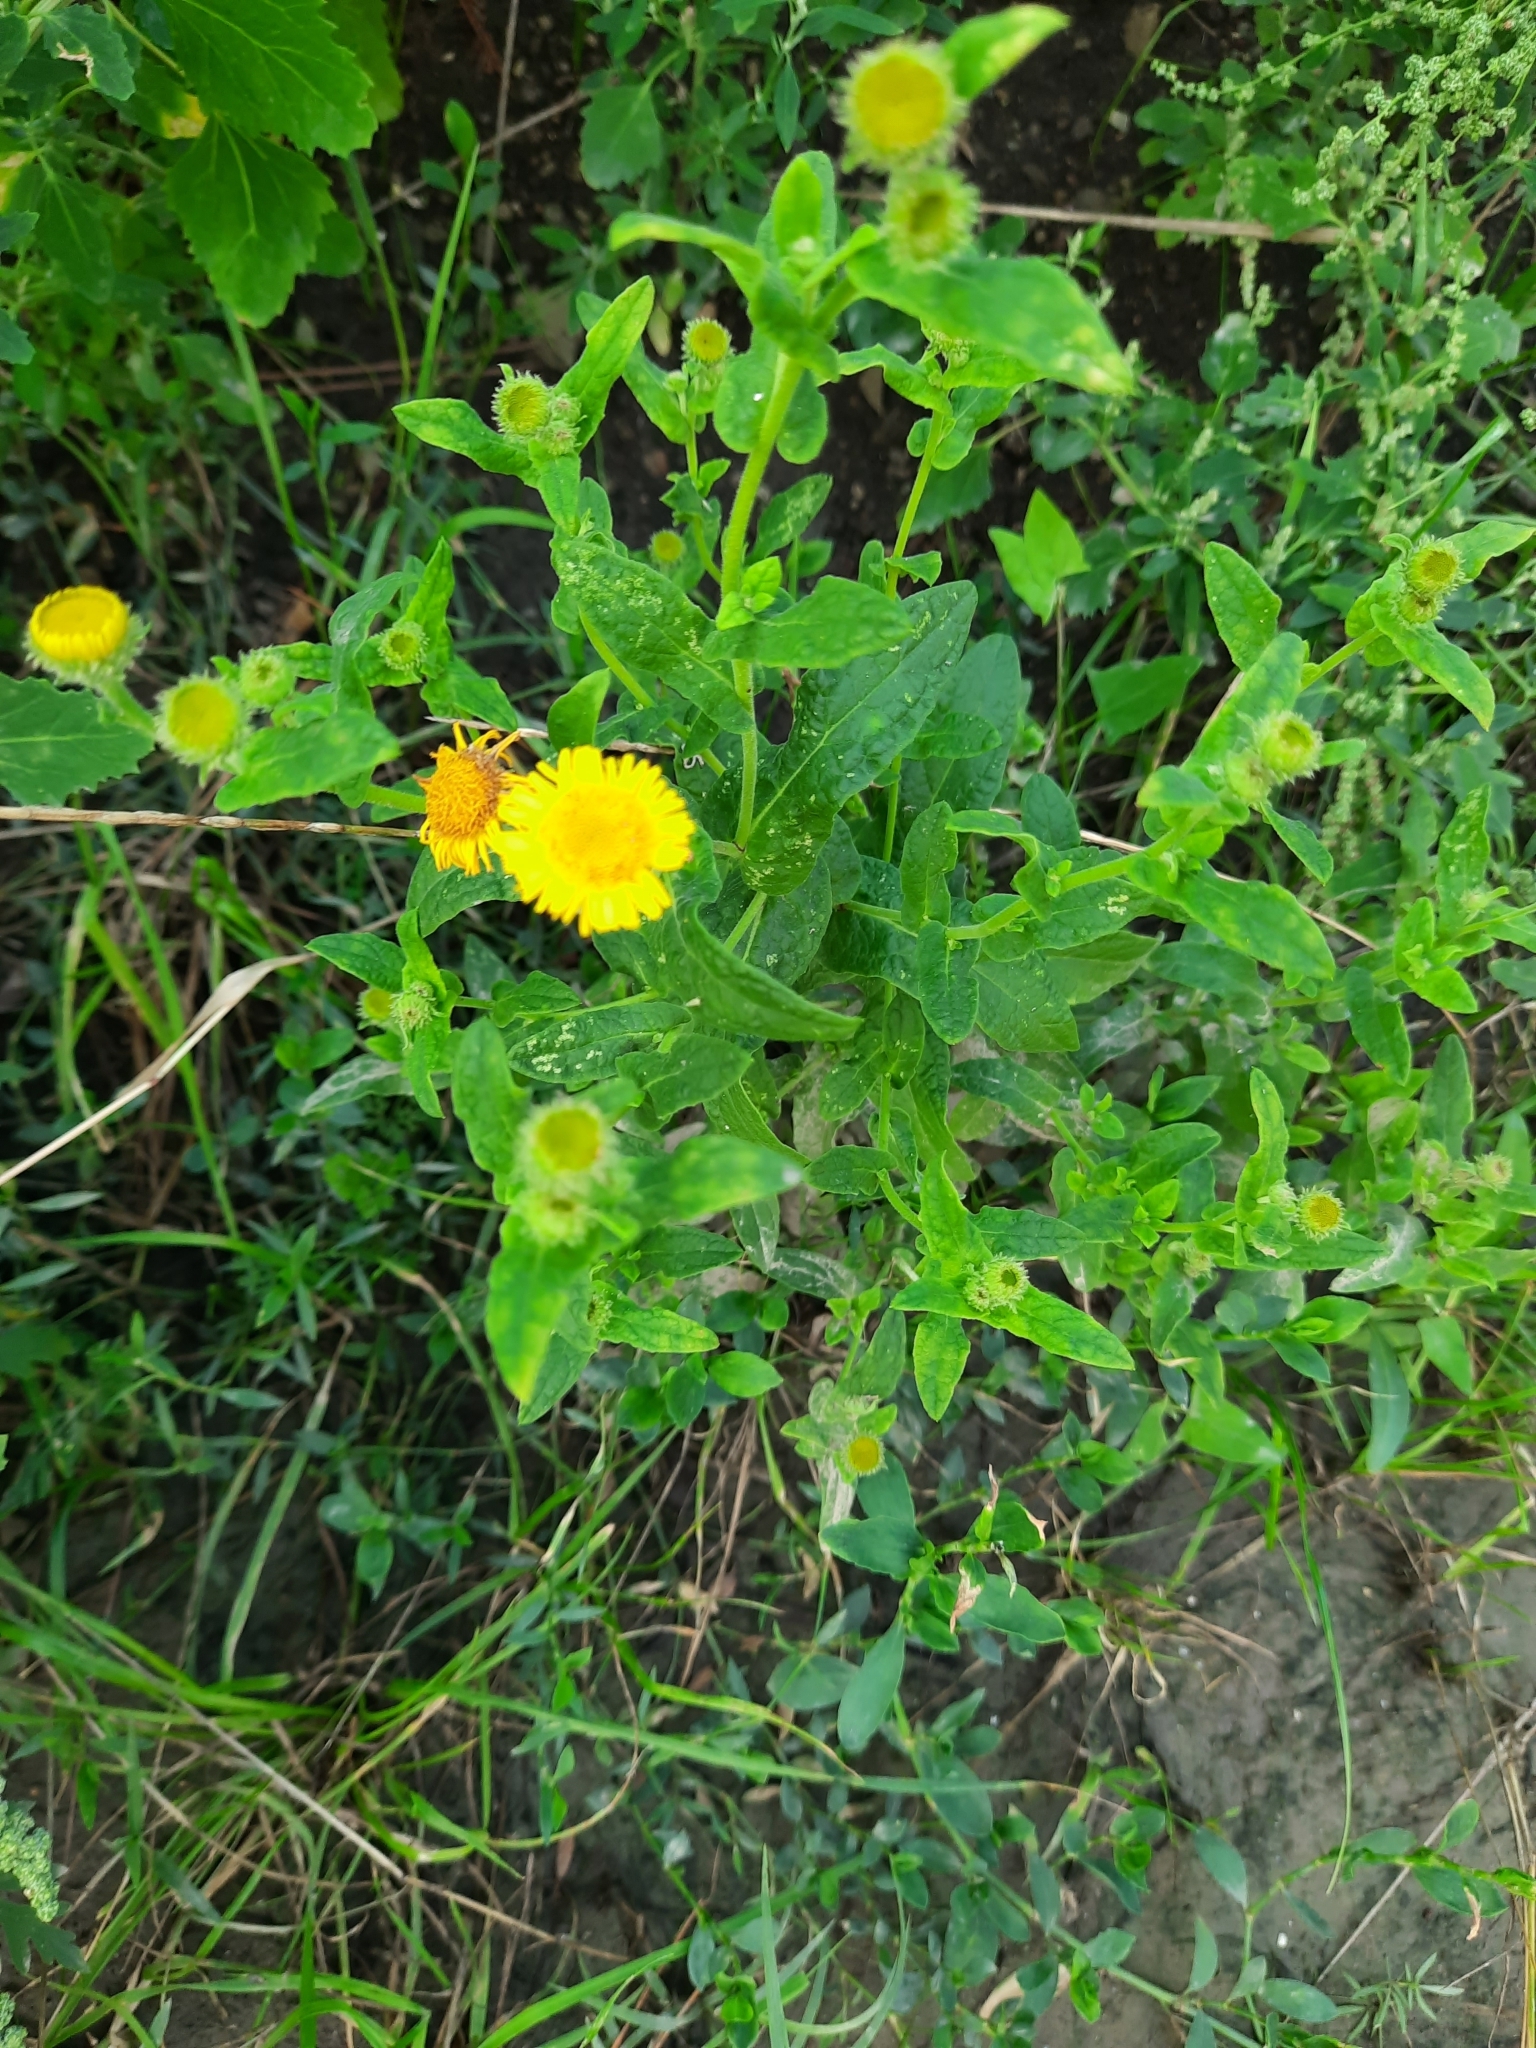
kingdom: Plantae
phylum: Tracheophyta
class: Magnoliopsida
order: Asterales
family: Asteraceae
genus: Pulicaria
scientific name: Pulicaria dysenterica
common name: Common fleabane
